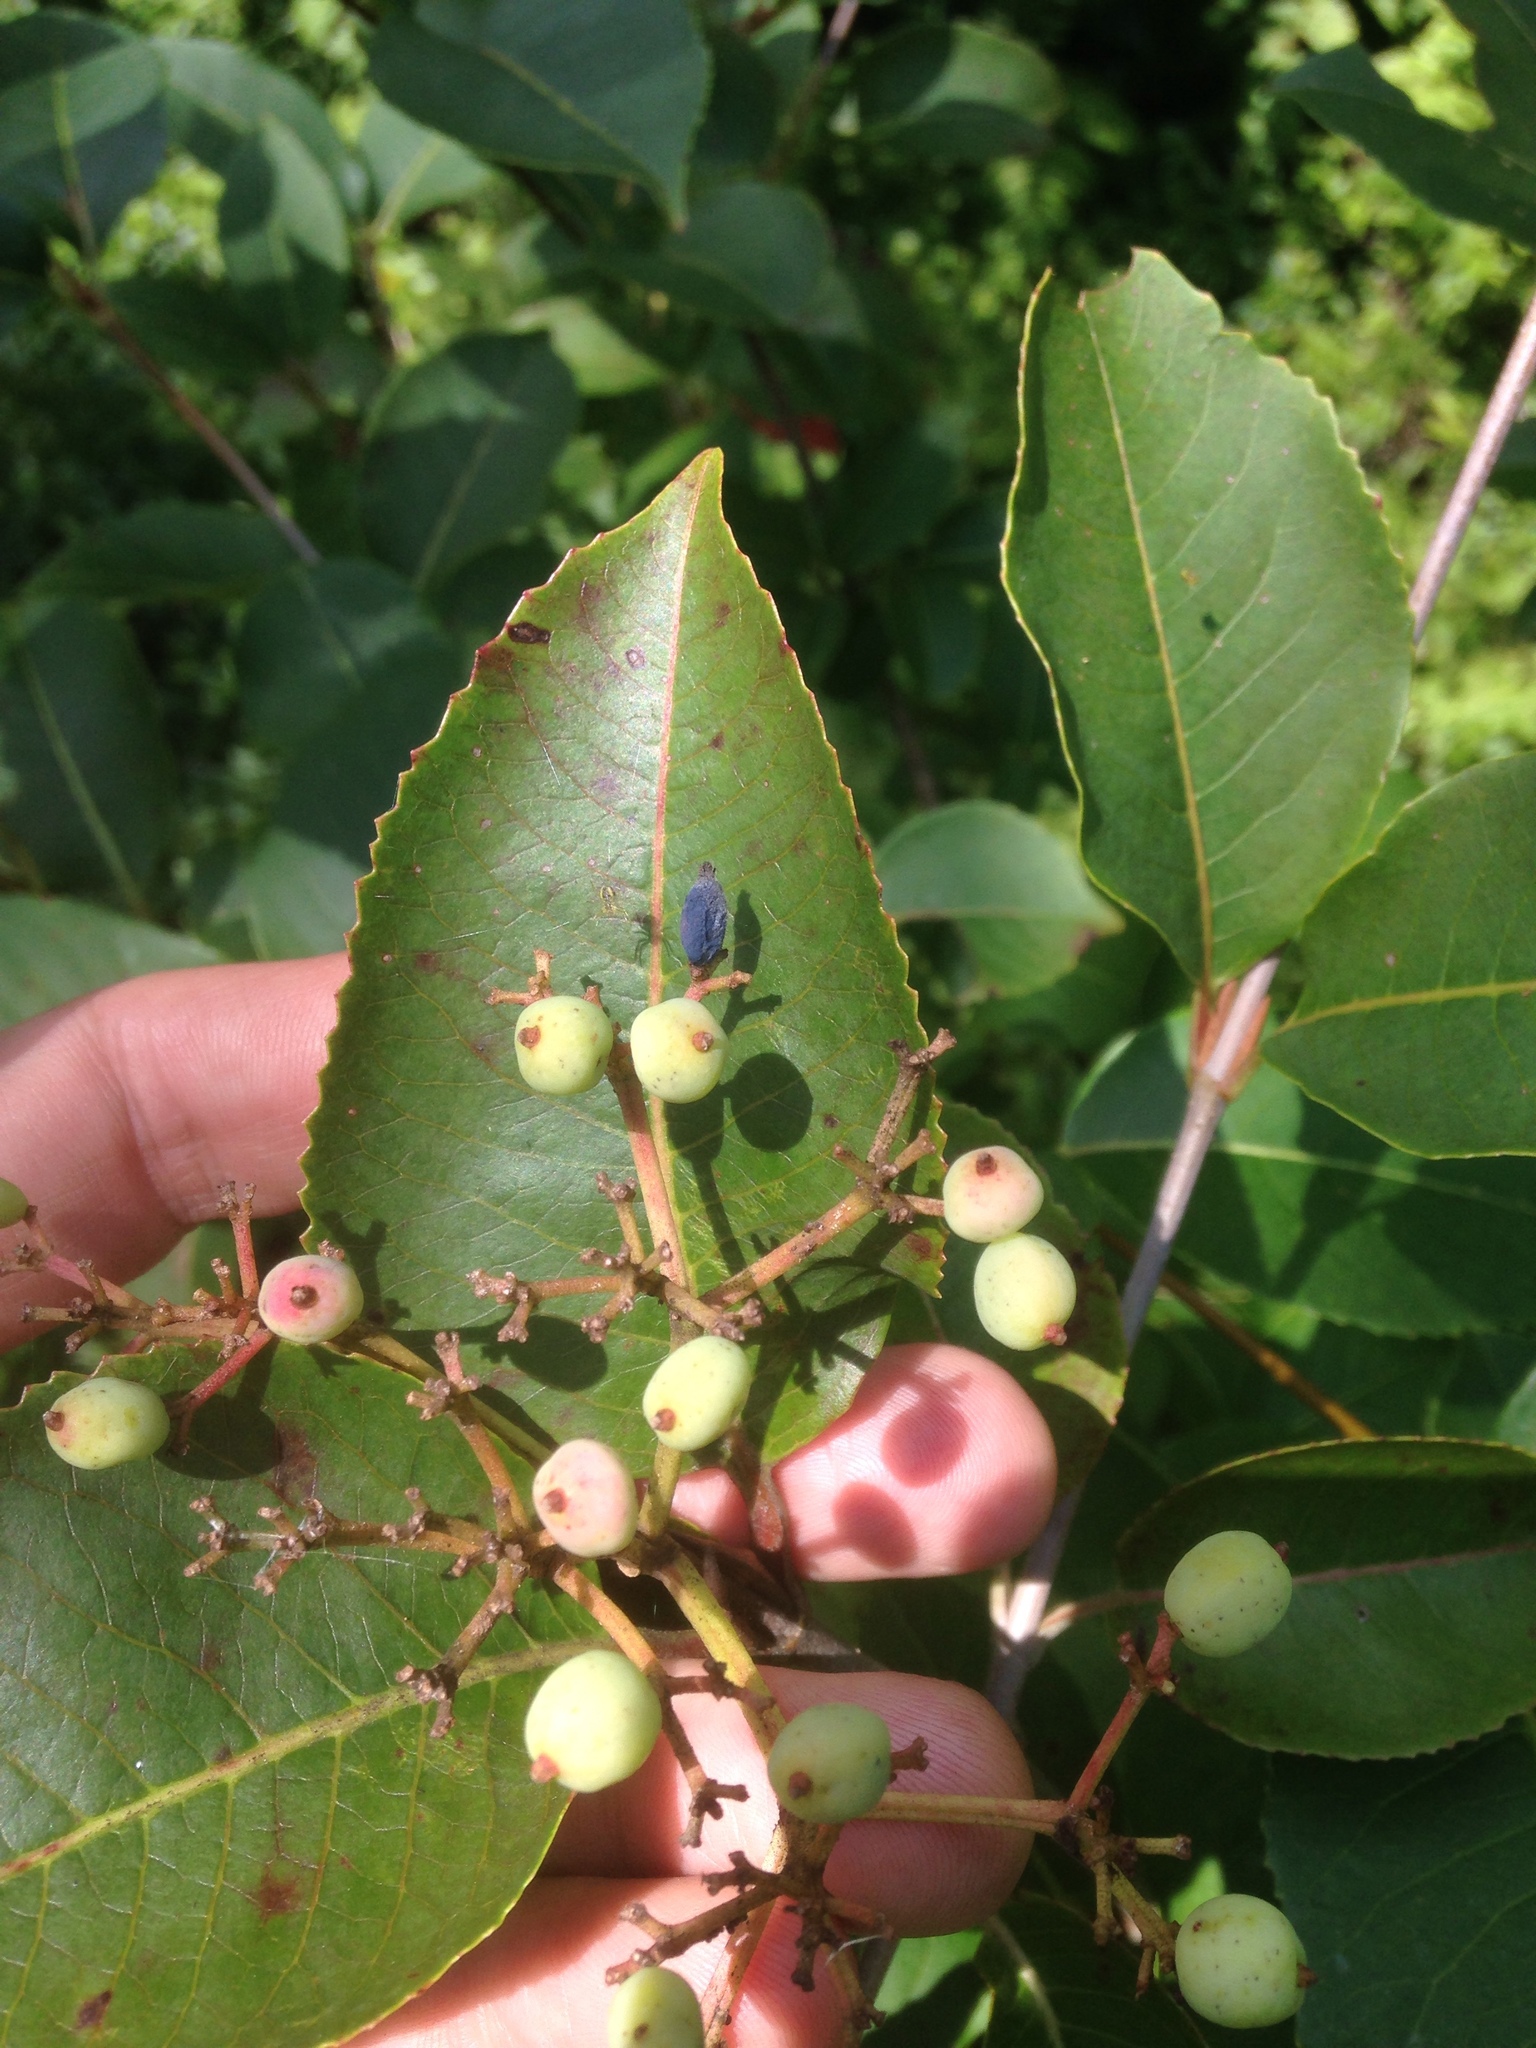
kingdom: Plantae
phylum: Tracheophyta
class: Magnoliopsida
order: Dipsacales
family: Viburnaceae
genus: Viburnum
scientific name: Viburnum cassinoides
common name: Swamp haw
